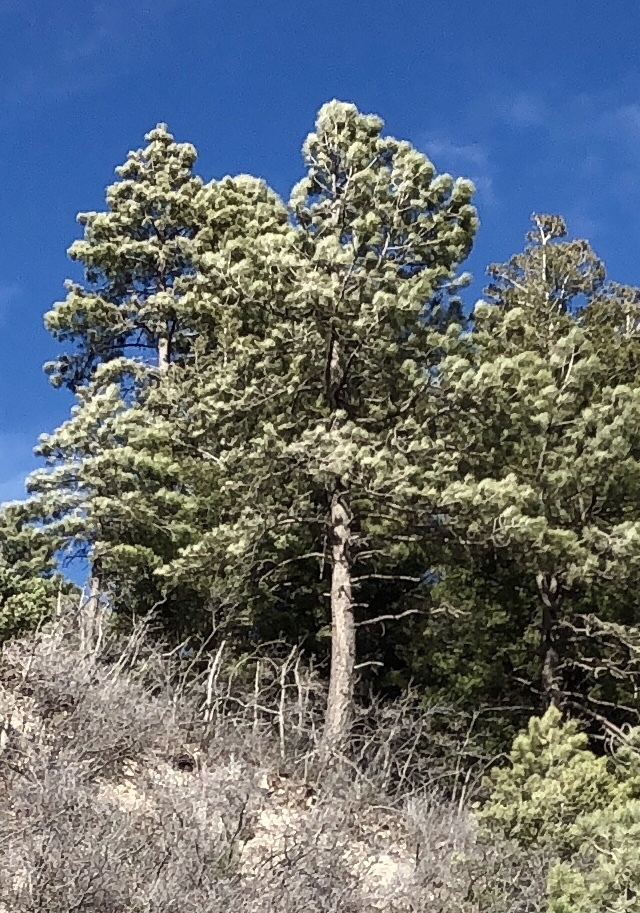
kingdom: Plantae
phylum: Tracheophyta
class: Pinopsida
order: Pinales
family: Pinaceae
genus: Pinus
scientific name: Pinus ponderosa
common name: Western yellow-pine
